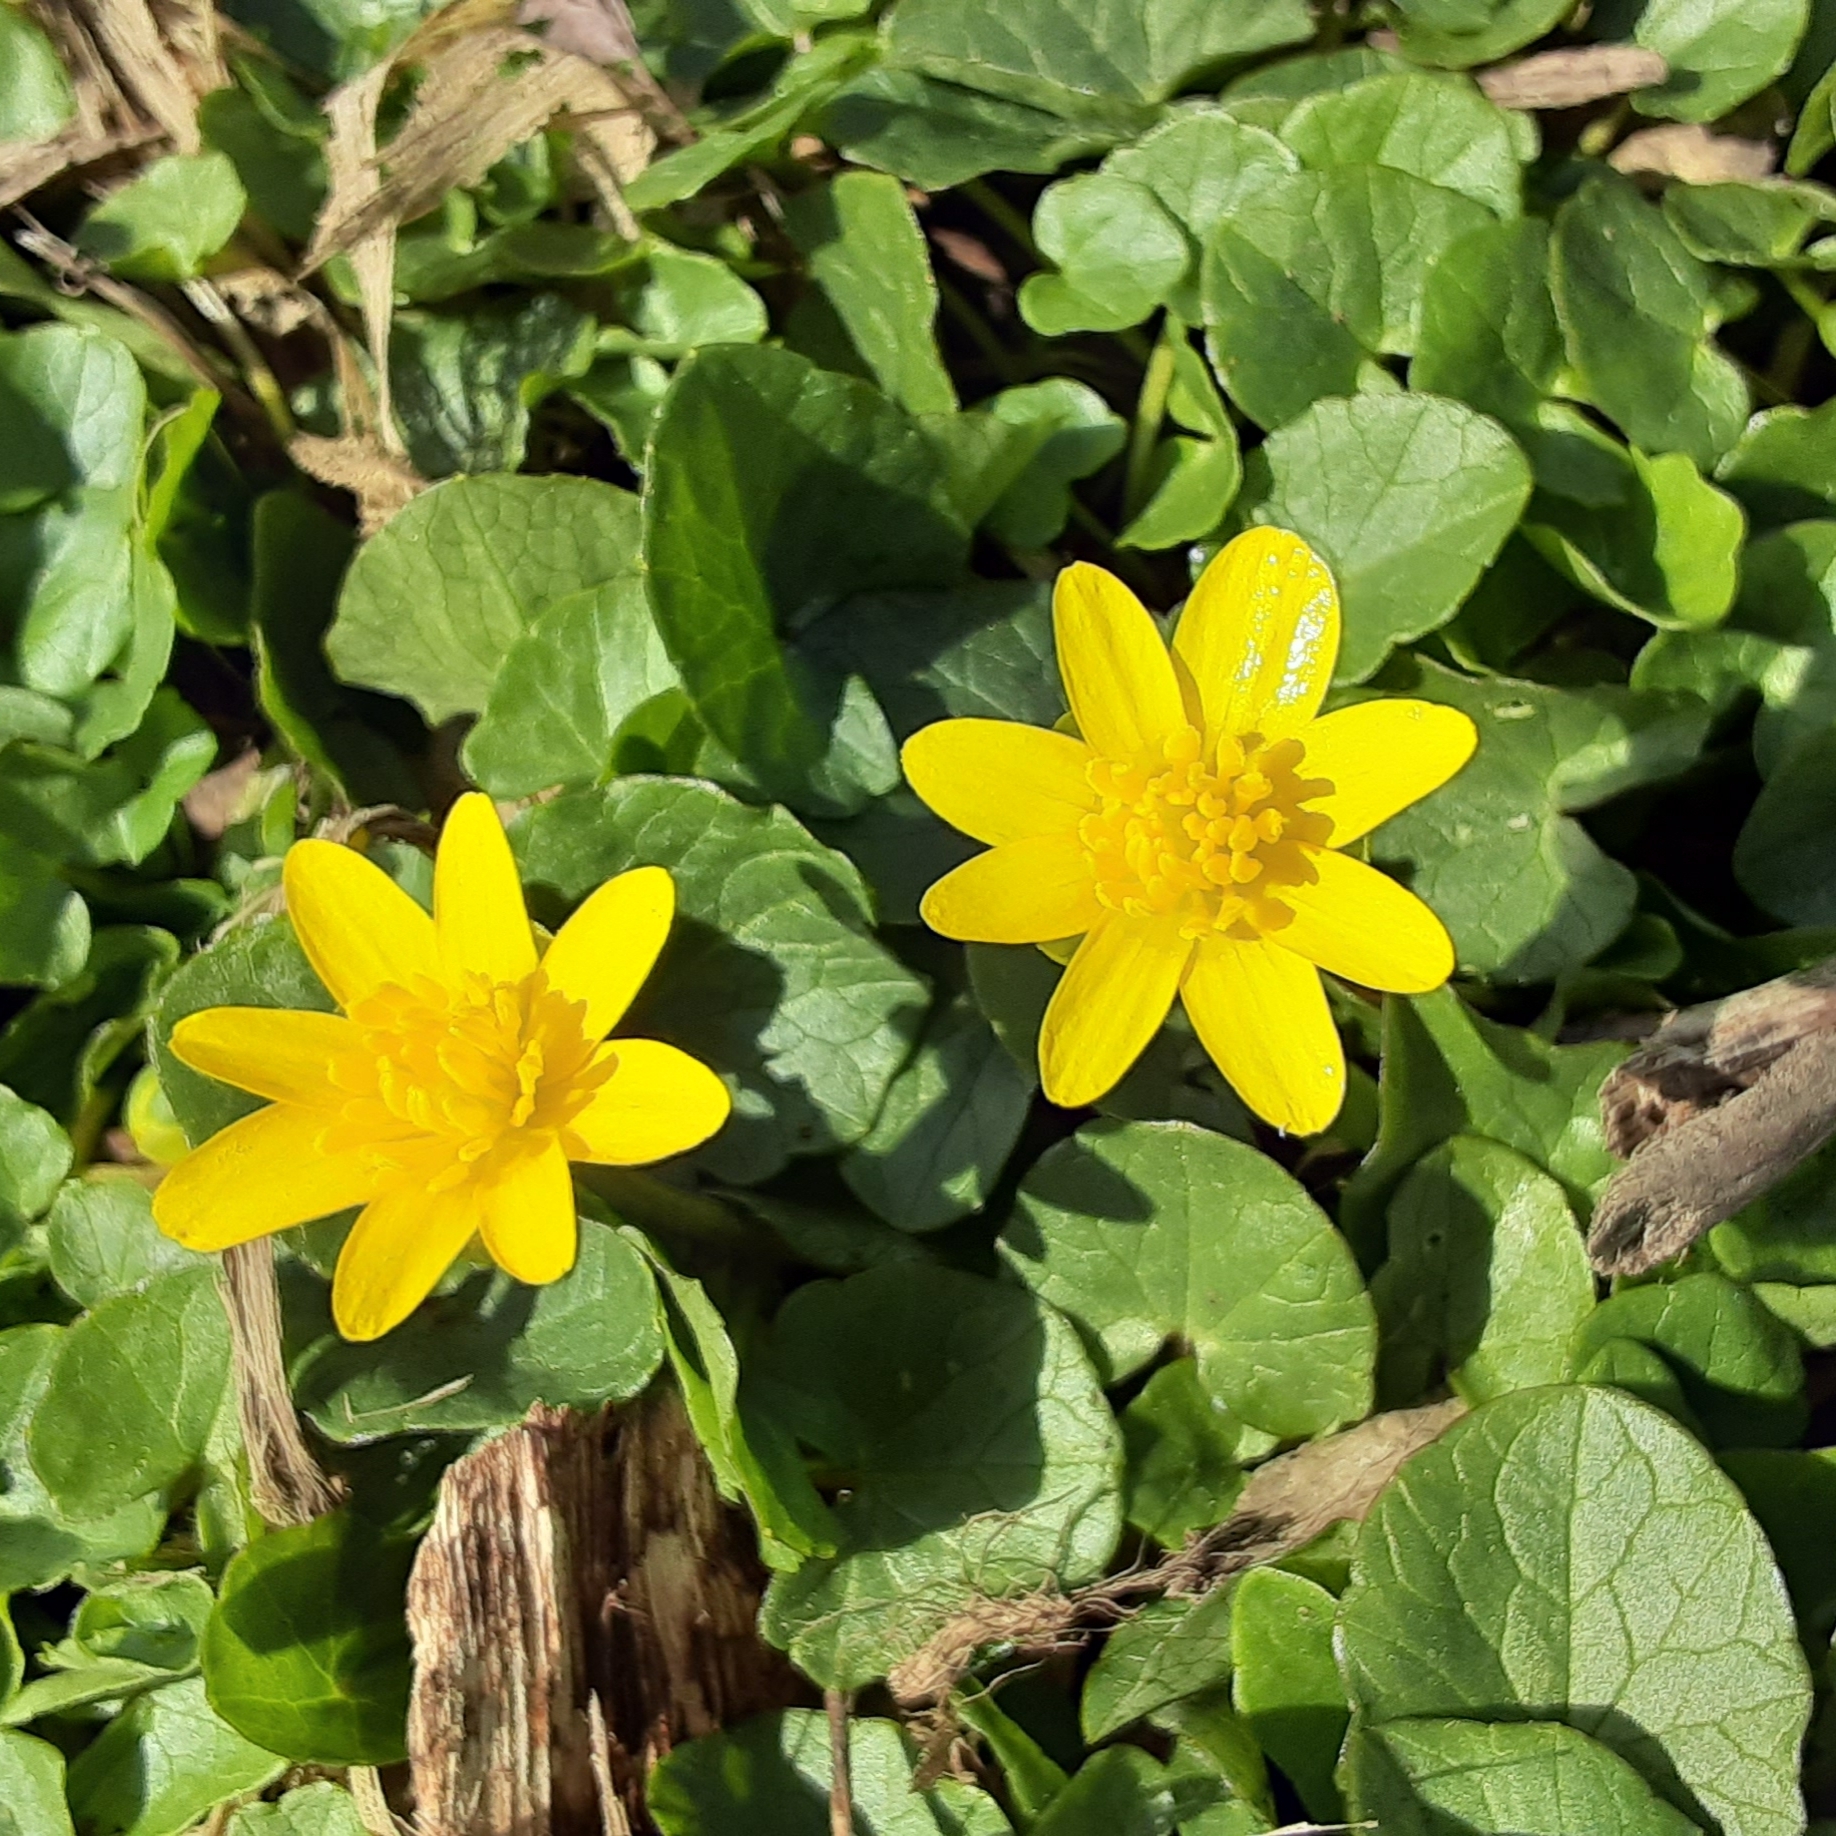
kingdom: Plantae
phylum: Tracheophyta
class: Magnoliopsida
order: Ranunculales
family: Ranunculaceae
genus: Ficaria
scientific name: Ficaria verna
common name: Lesser celandine
